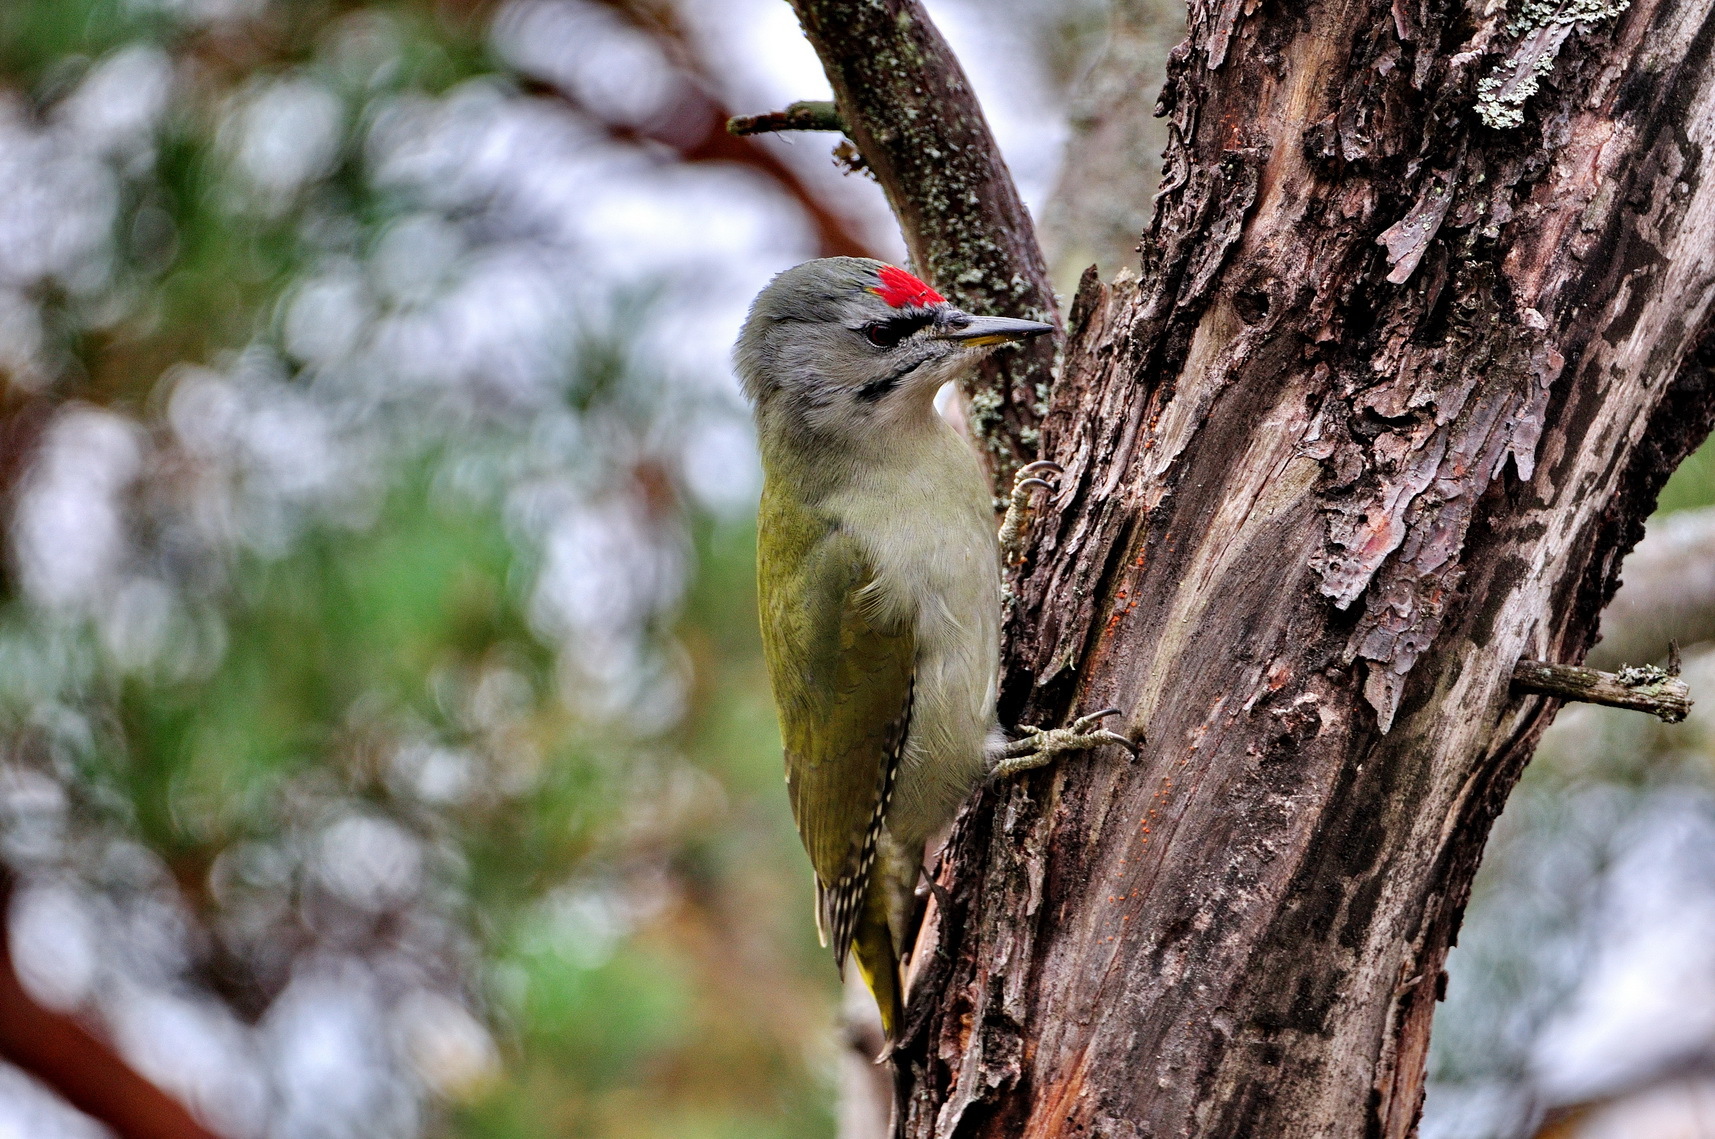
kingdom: Animalia
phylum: Chordata
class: Aves
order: Piciformes
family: Picidae
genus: Picus
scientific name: Picus canus
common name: Grey-headed woodpecker
